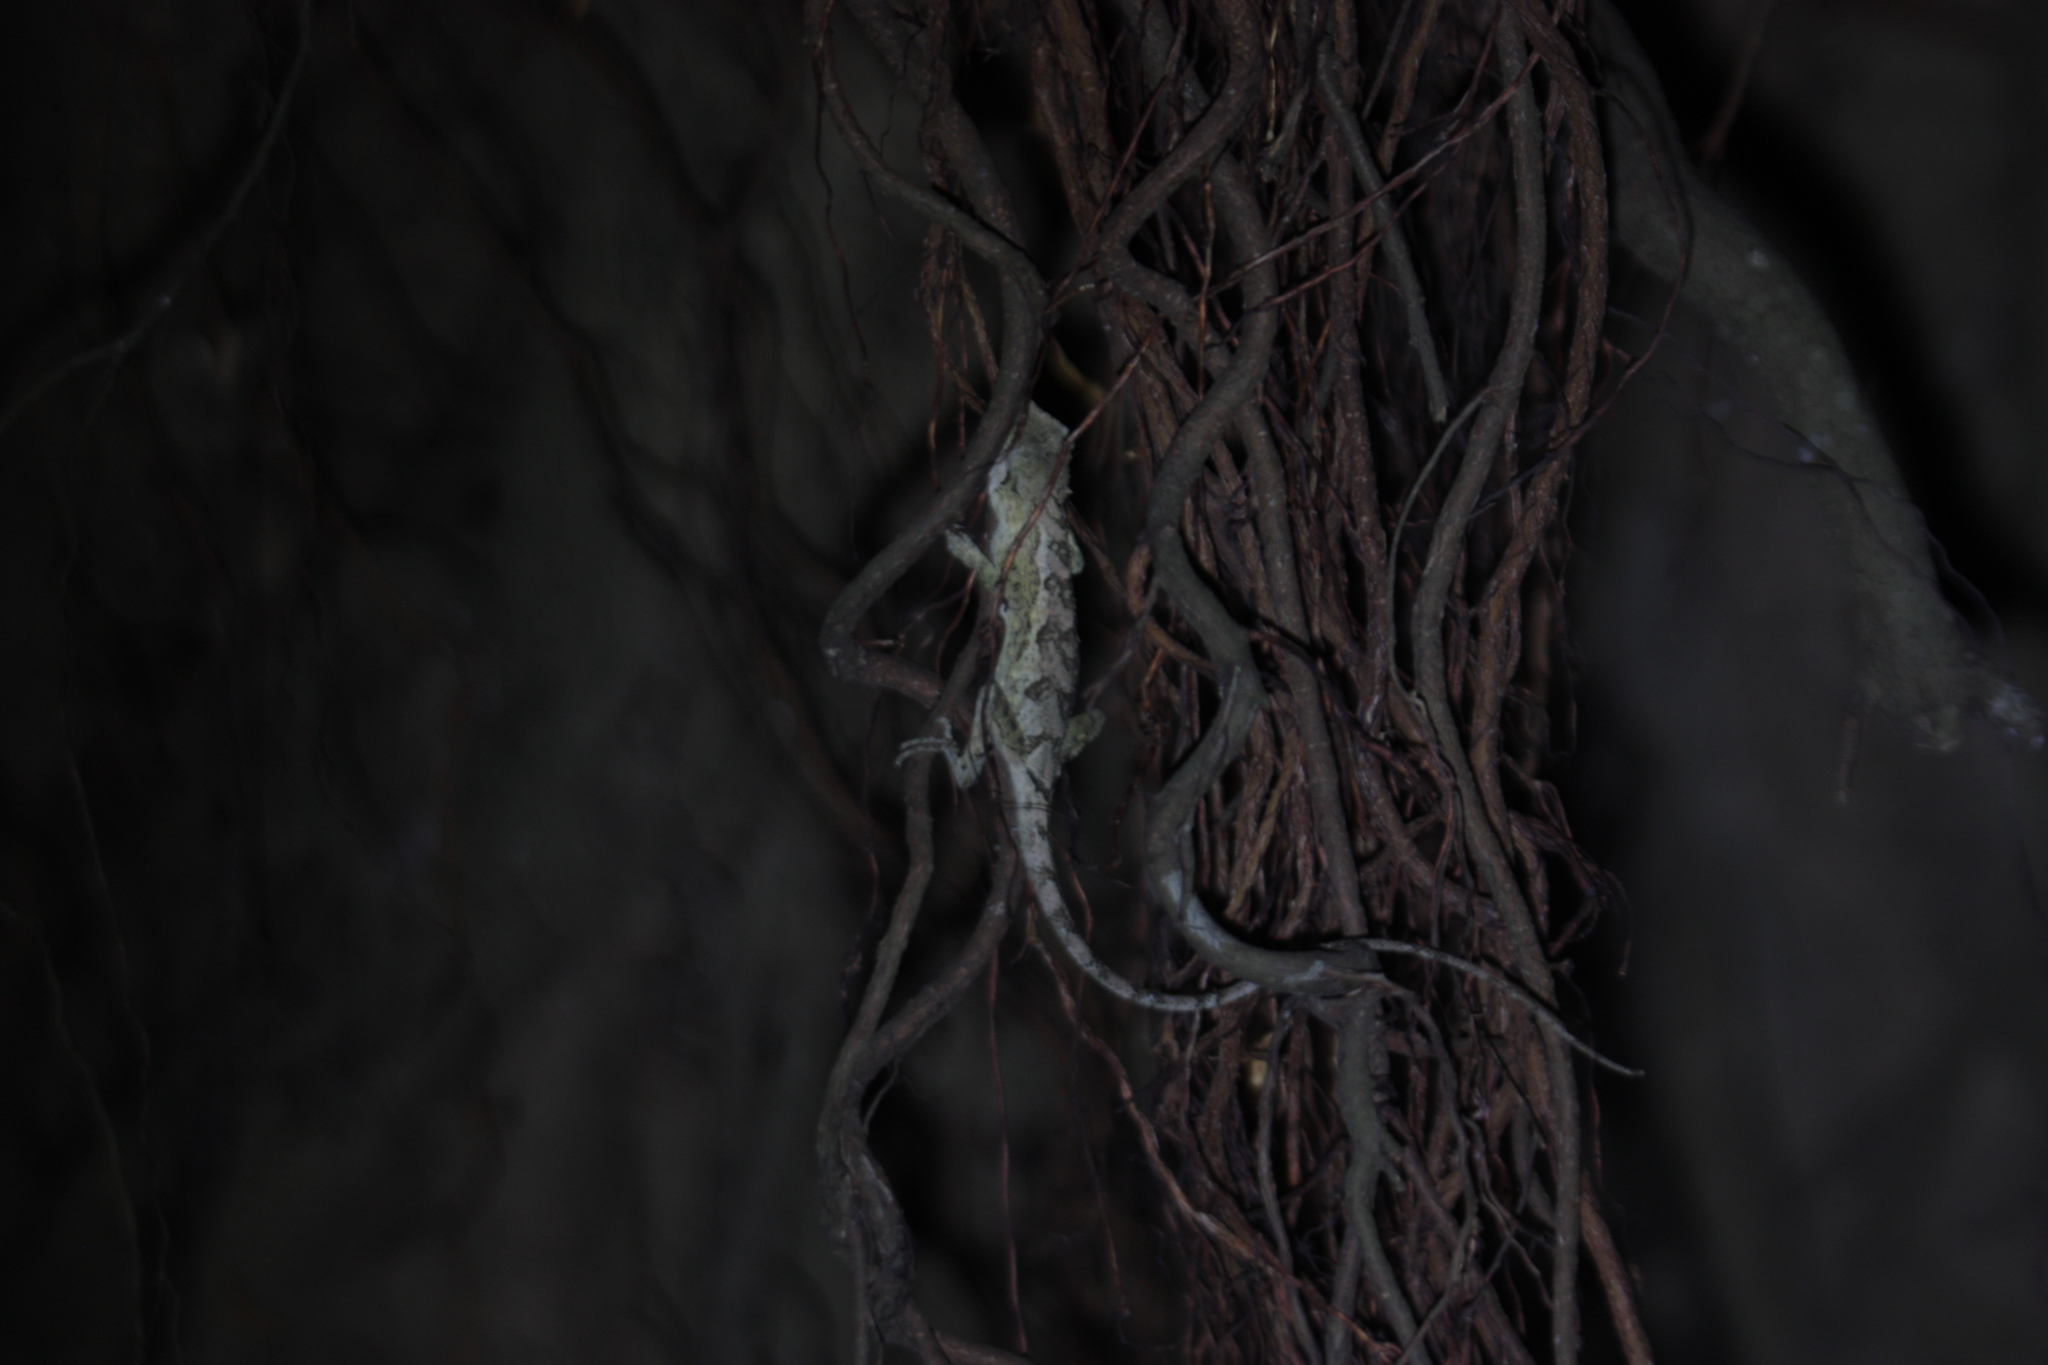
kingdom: Animalia
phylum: Chordata
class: Squamata
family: Agamidae
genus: Diploderma
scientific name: Diploderma swinhonis
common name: Taiwan japalure
